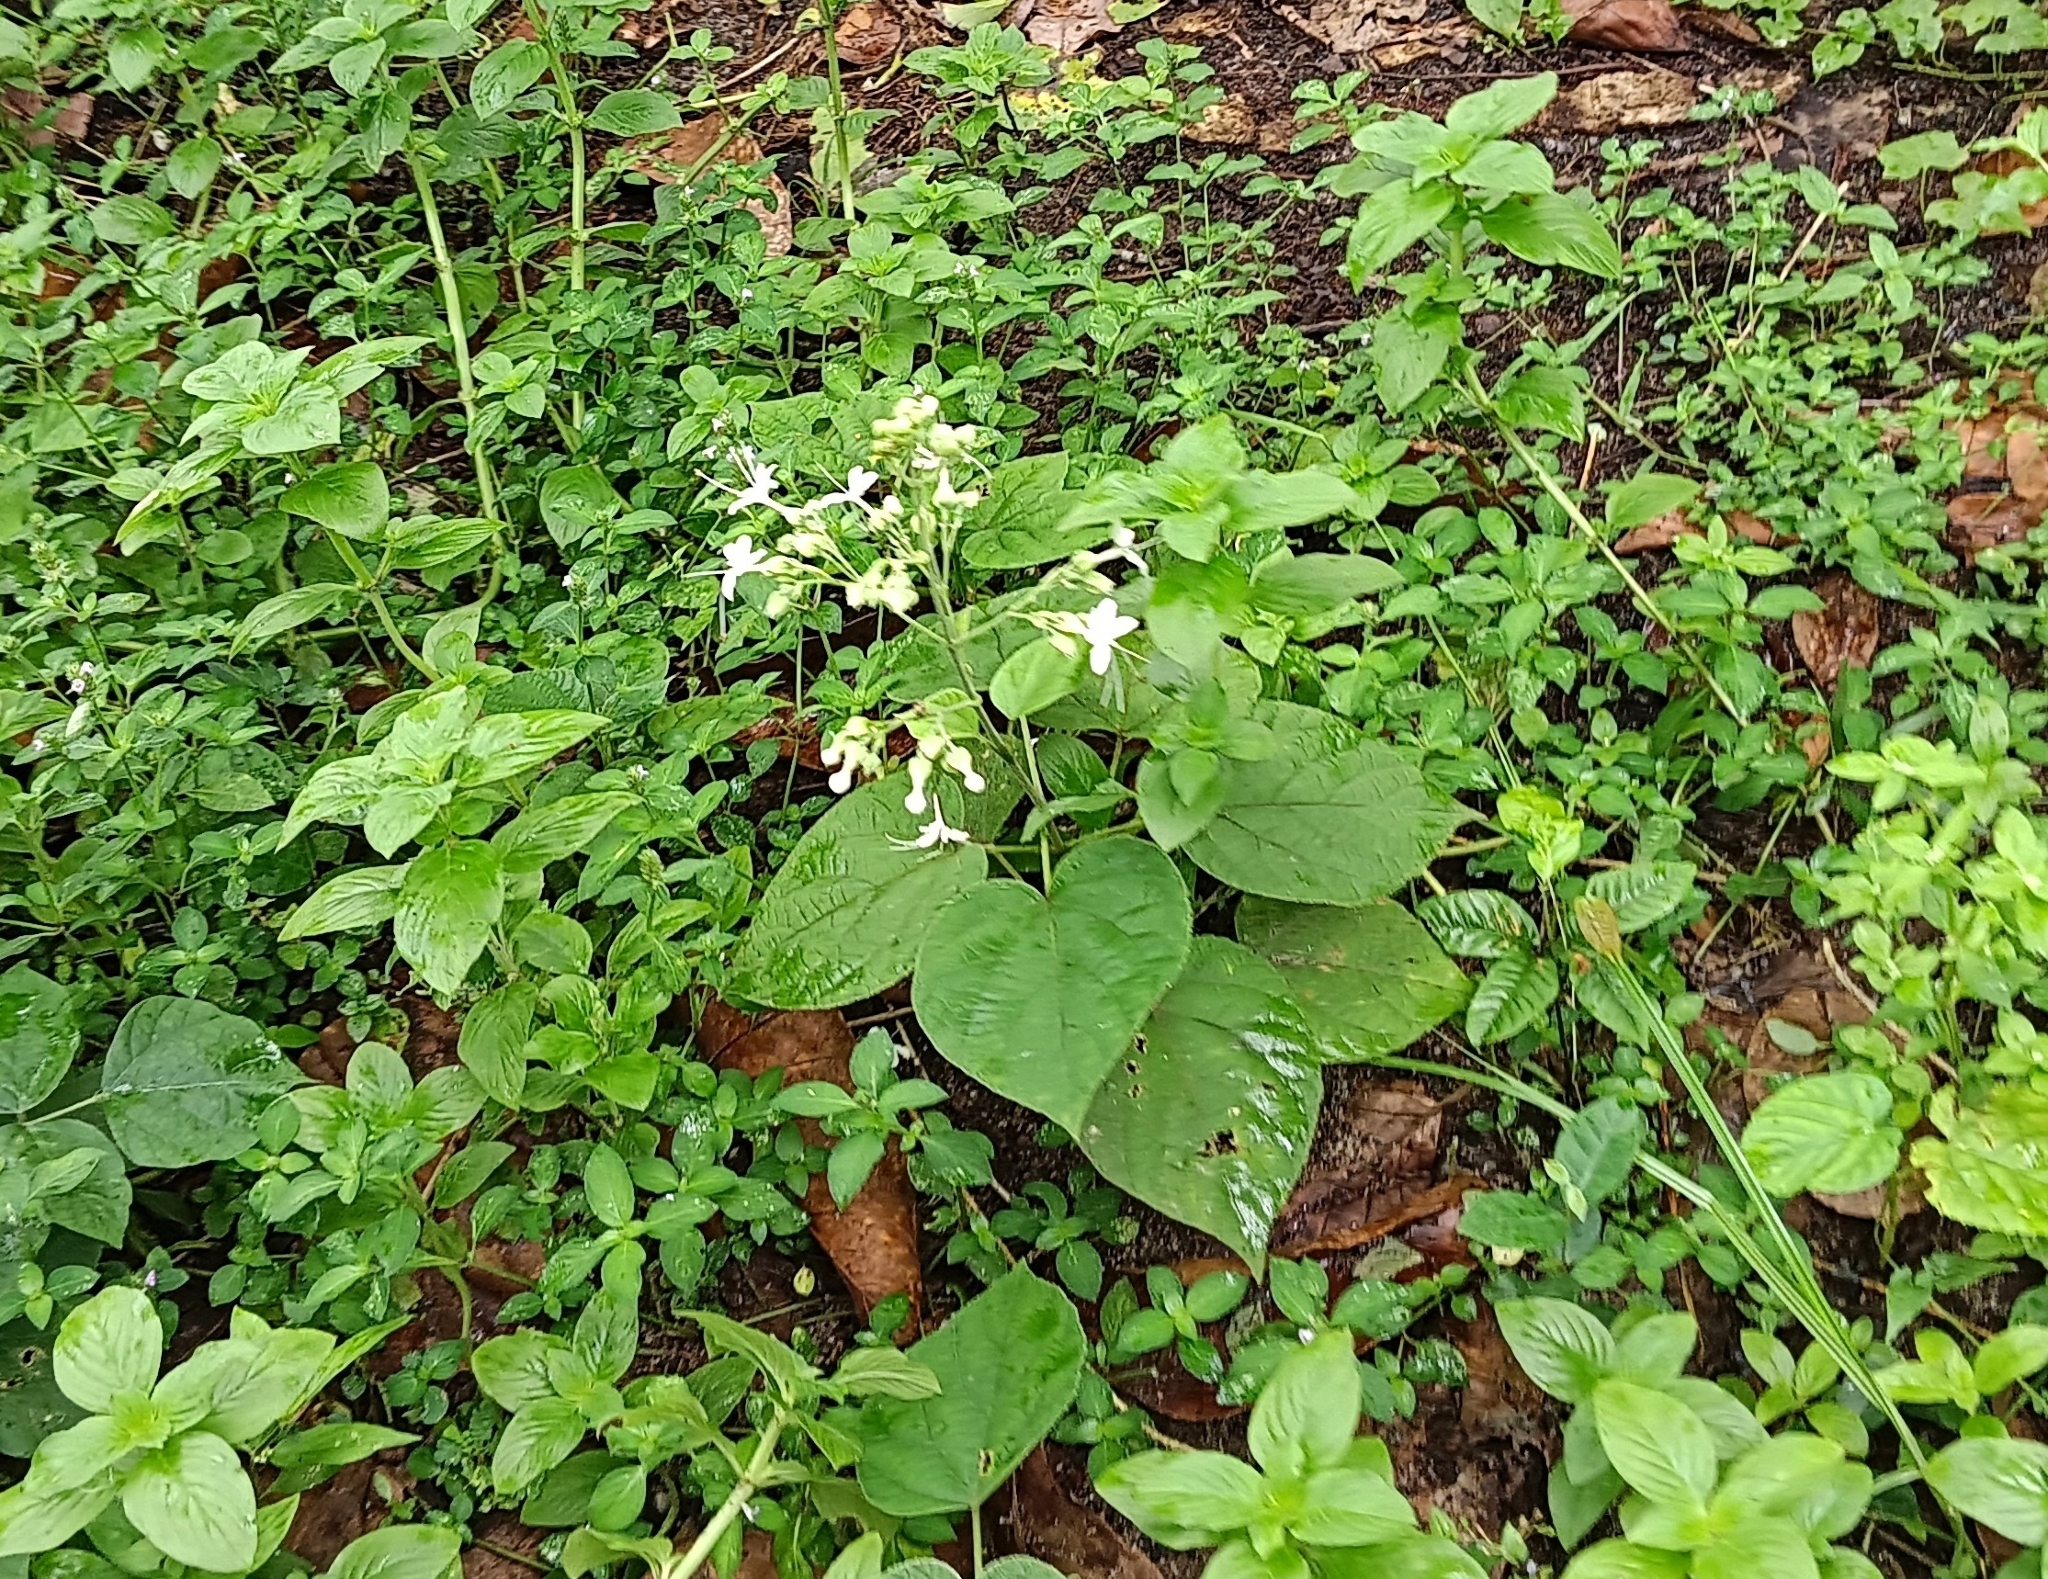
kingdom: Plantae
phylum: Tracheophyta
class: Magnoliopsida
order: Lamiales
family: Lamiaceae
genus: Clerodendrum
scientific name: Clerodendrum infortunatum
